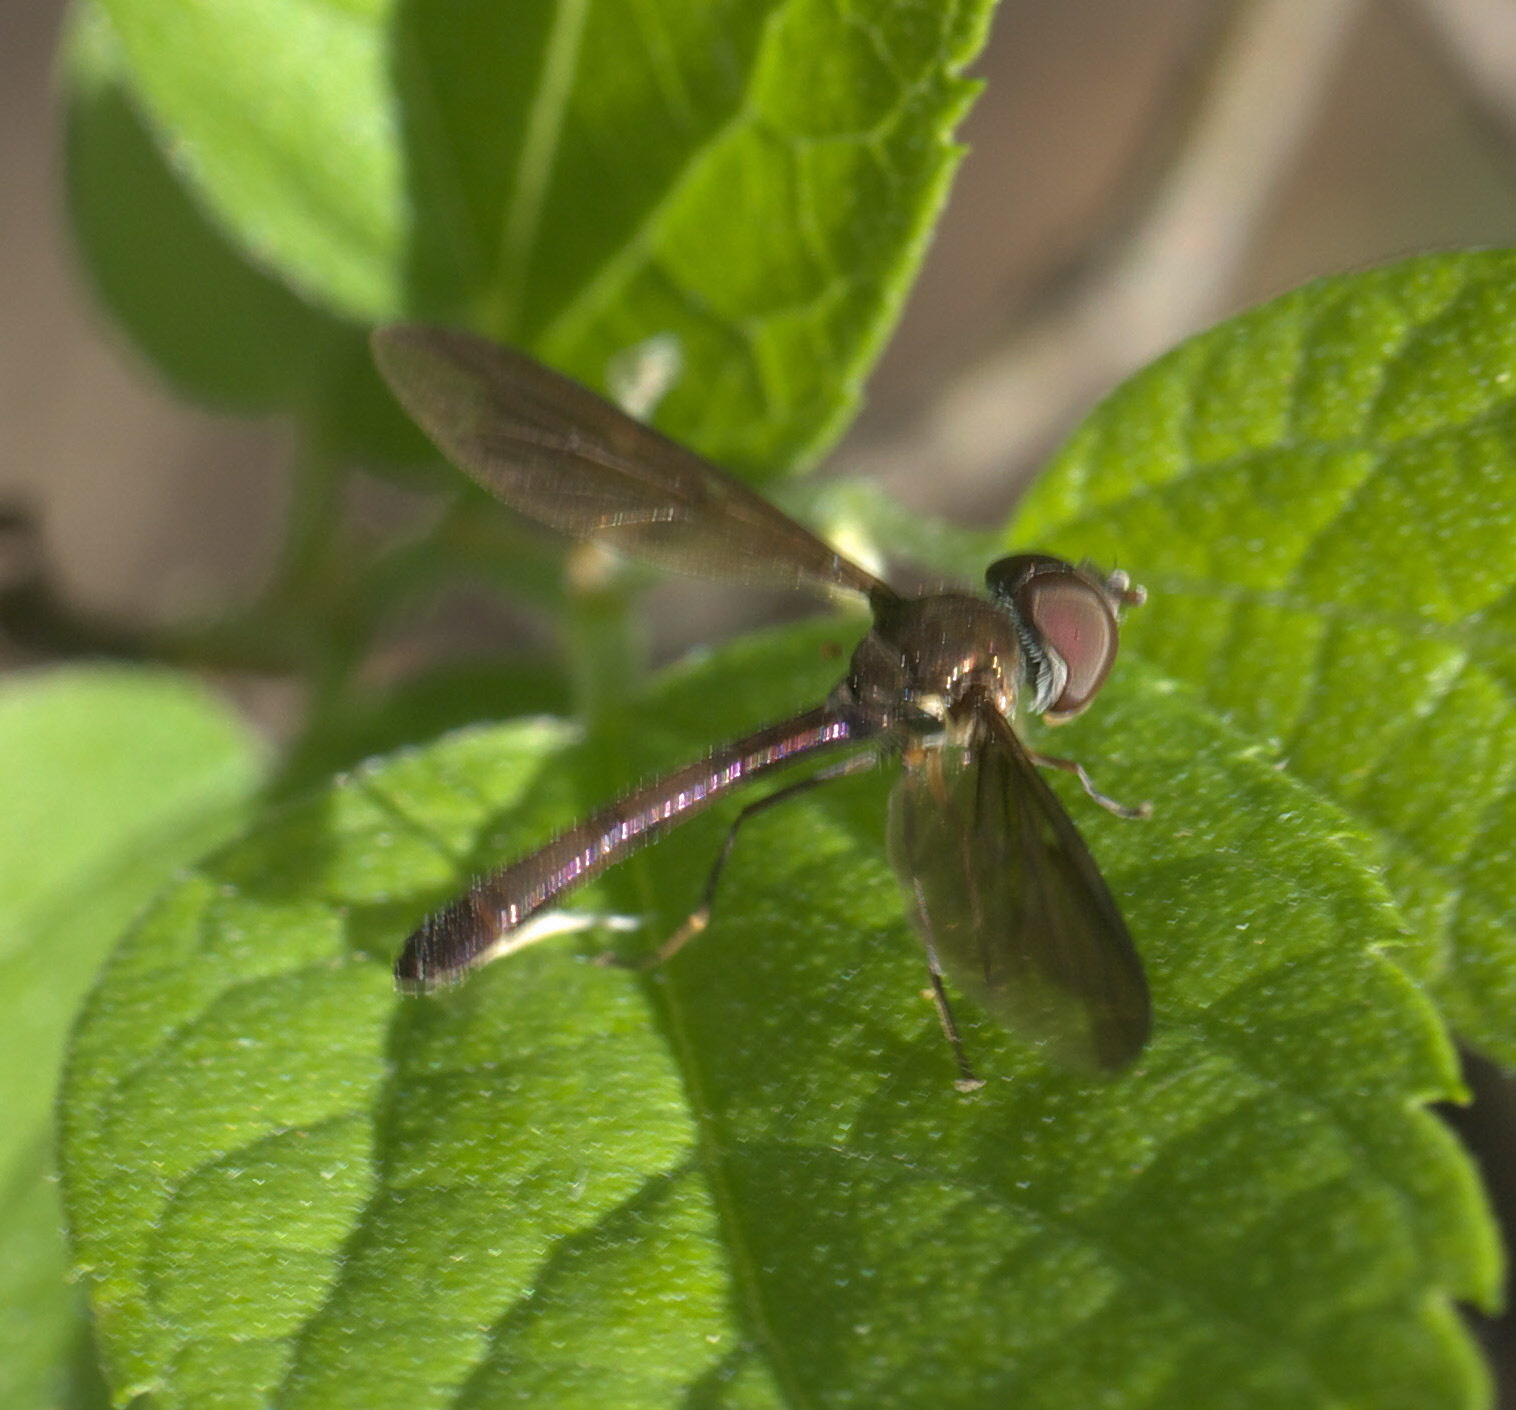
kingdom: Animalia
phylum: Arthropoda
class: Insecta
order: Diptera
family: Syrphidae
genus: Ocyptamus
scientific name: Ocyptamus fuscipennis
